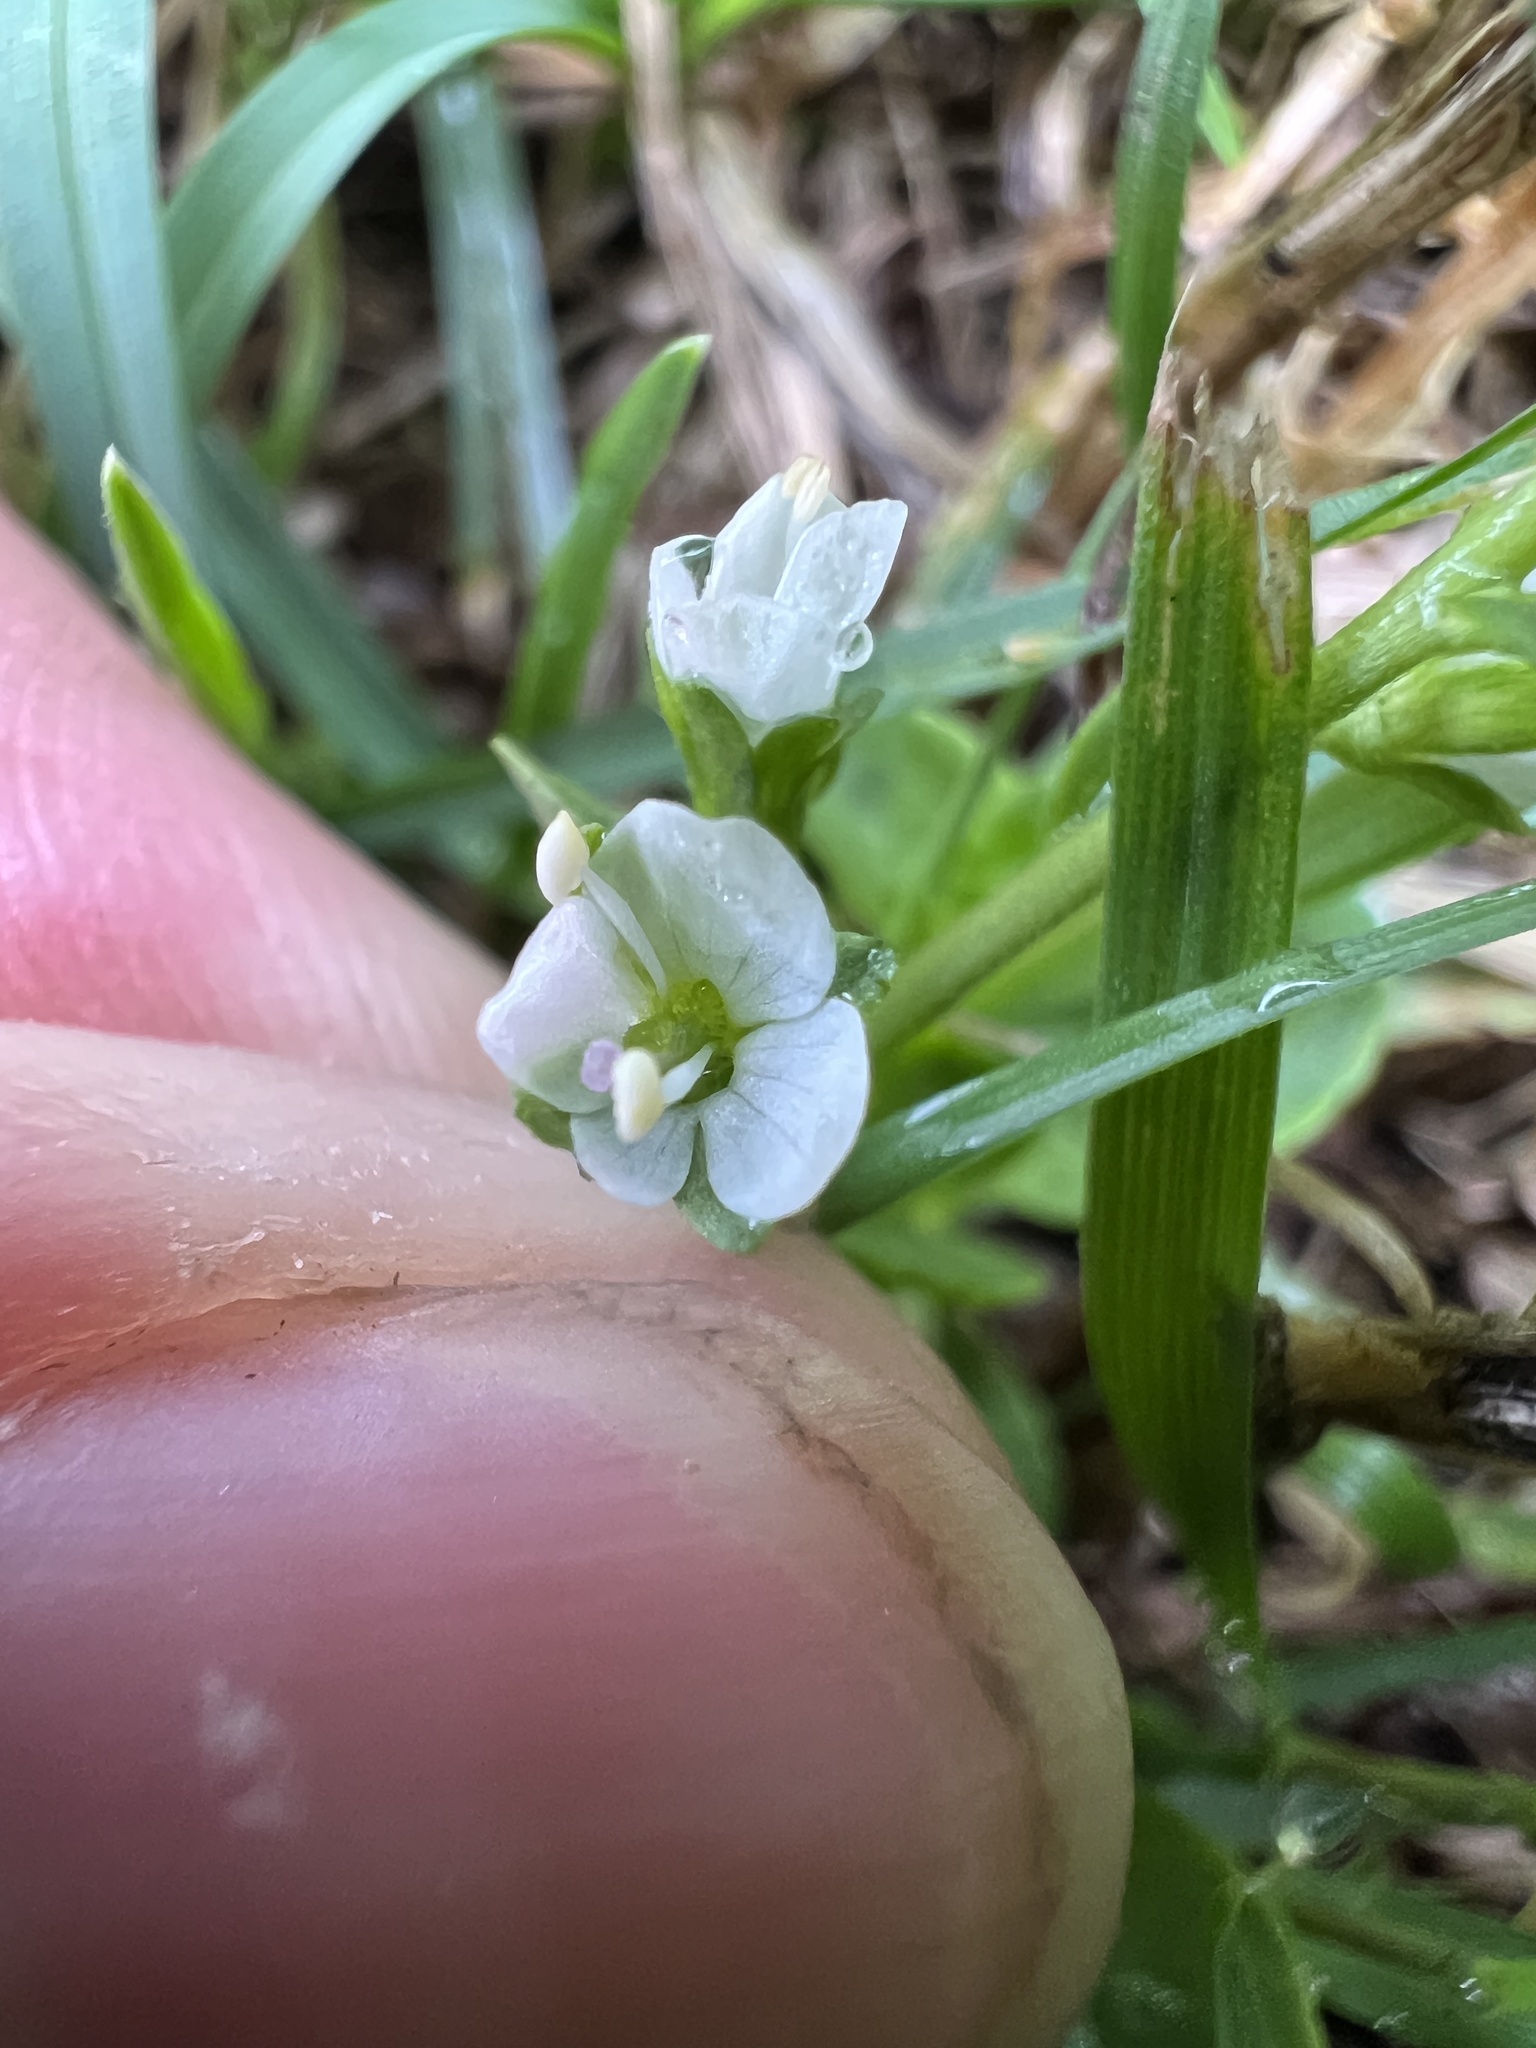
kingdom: Plantae
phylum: Tracheophyta
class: Magnoliopsida
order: Lamiales
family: Plantaginaceae
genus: Veronica
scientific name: Veronica serpyllifolia
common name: Thyme-leaved speedwell
